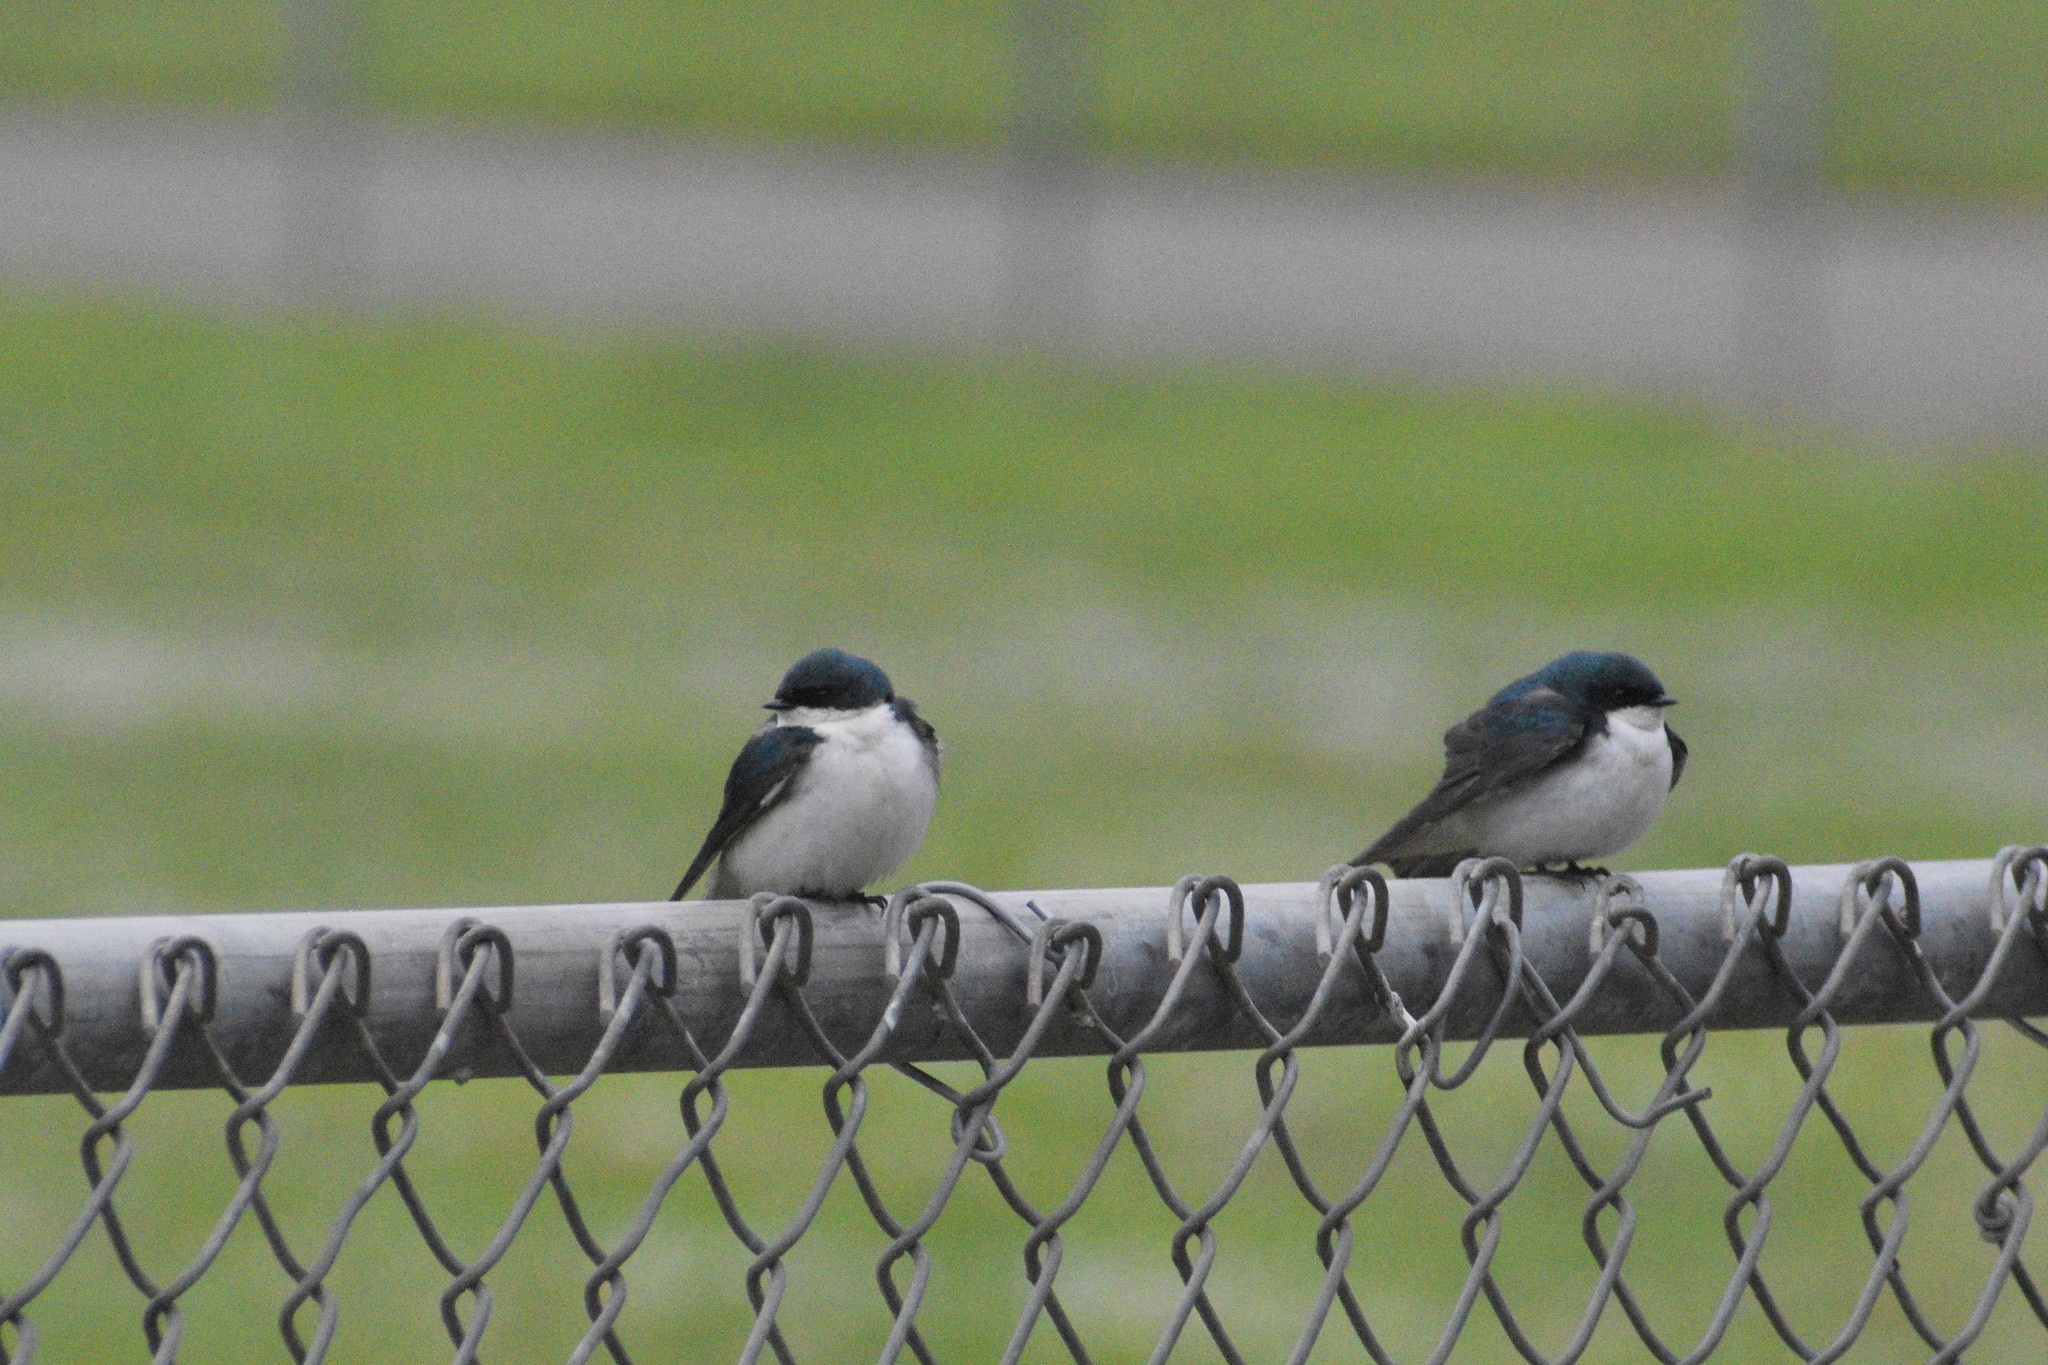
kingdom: Animalia
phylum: Chordata
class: Aves
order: Passeriformes
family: Hirundinidae
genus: Tachycineta
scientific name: Tachycineta bicolor
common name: Tree swallow
